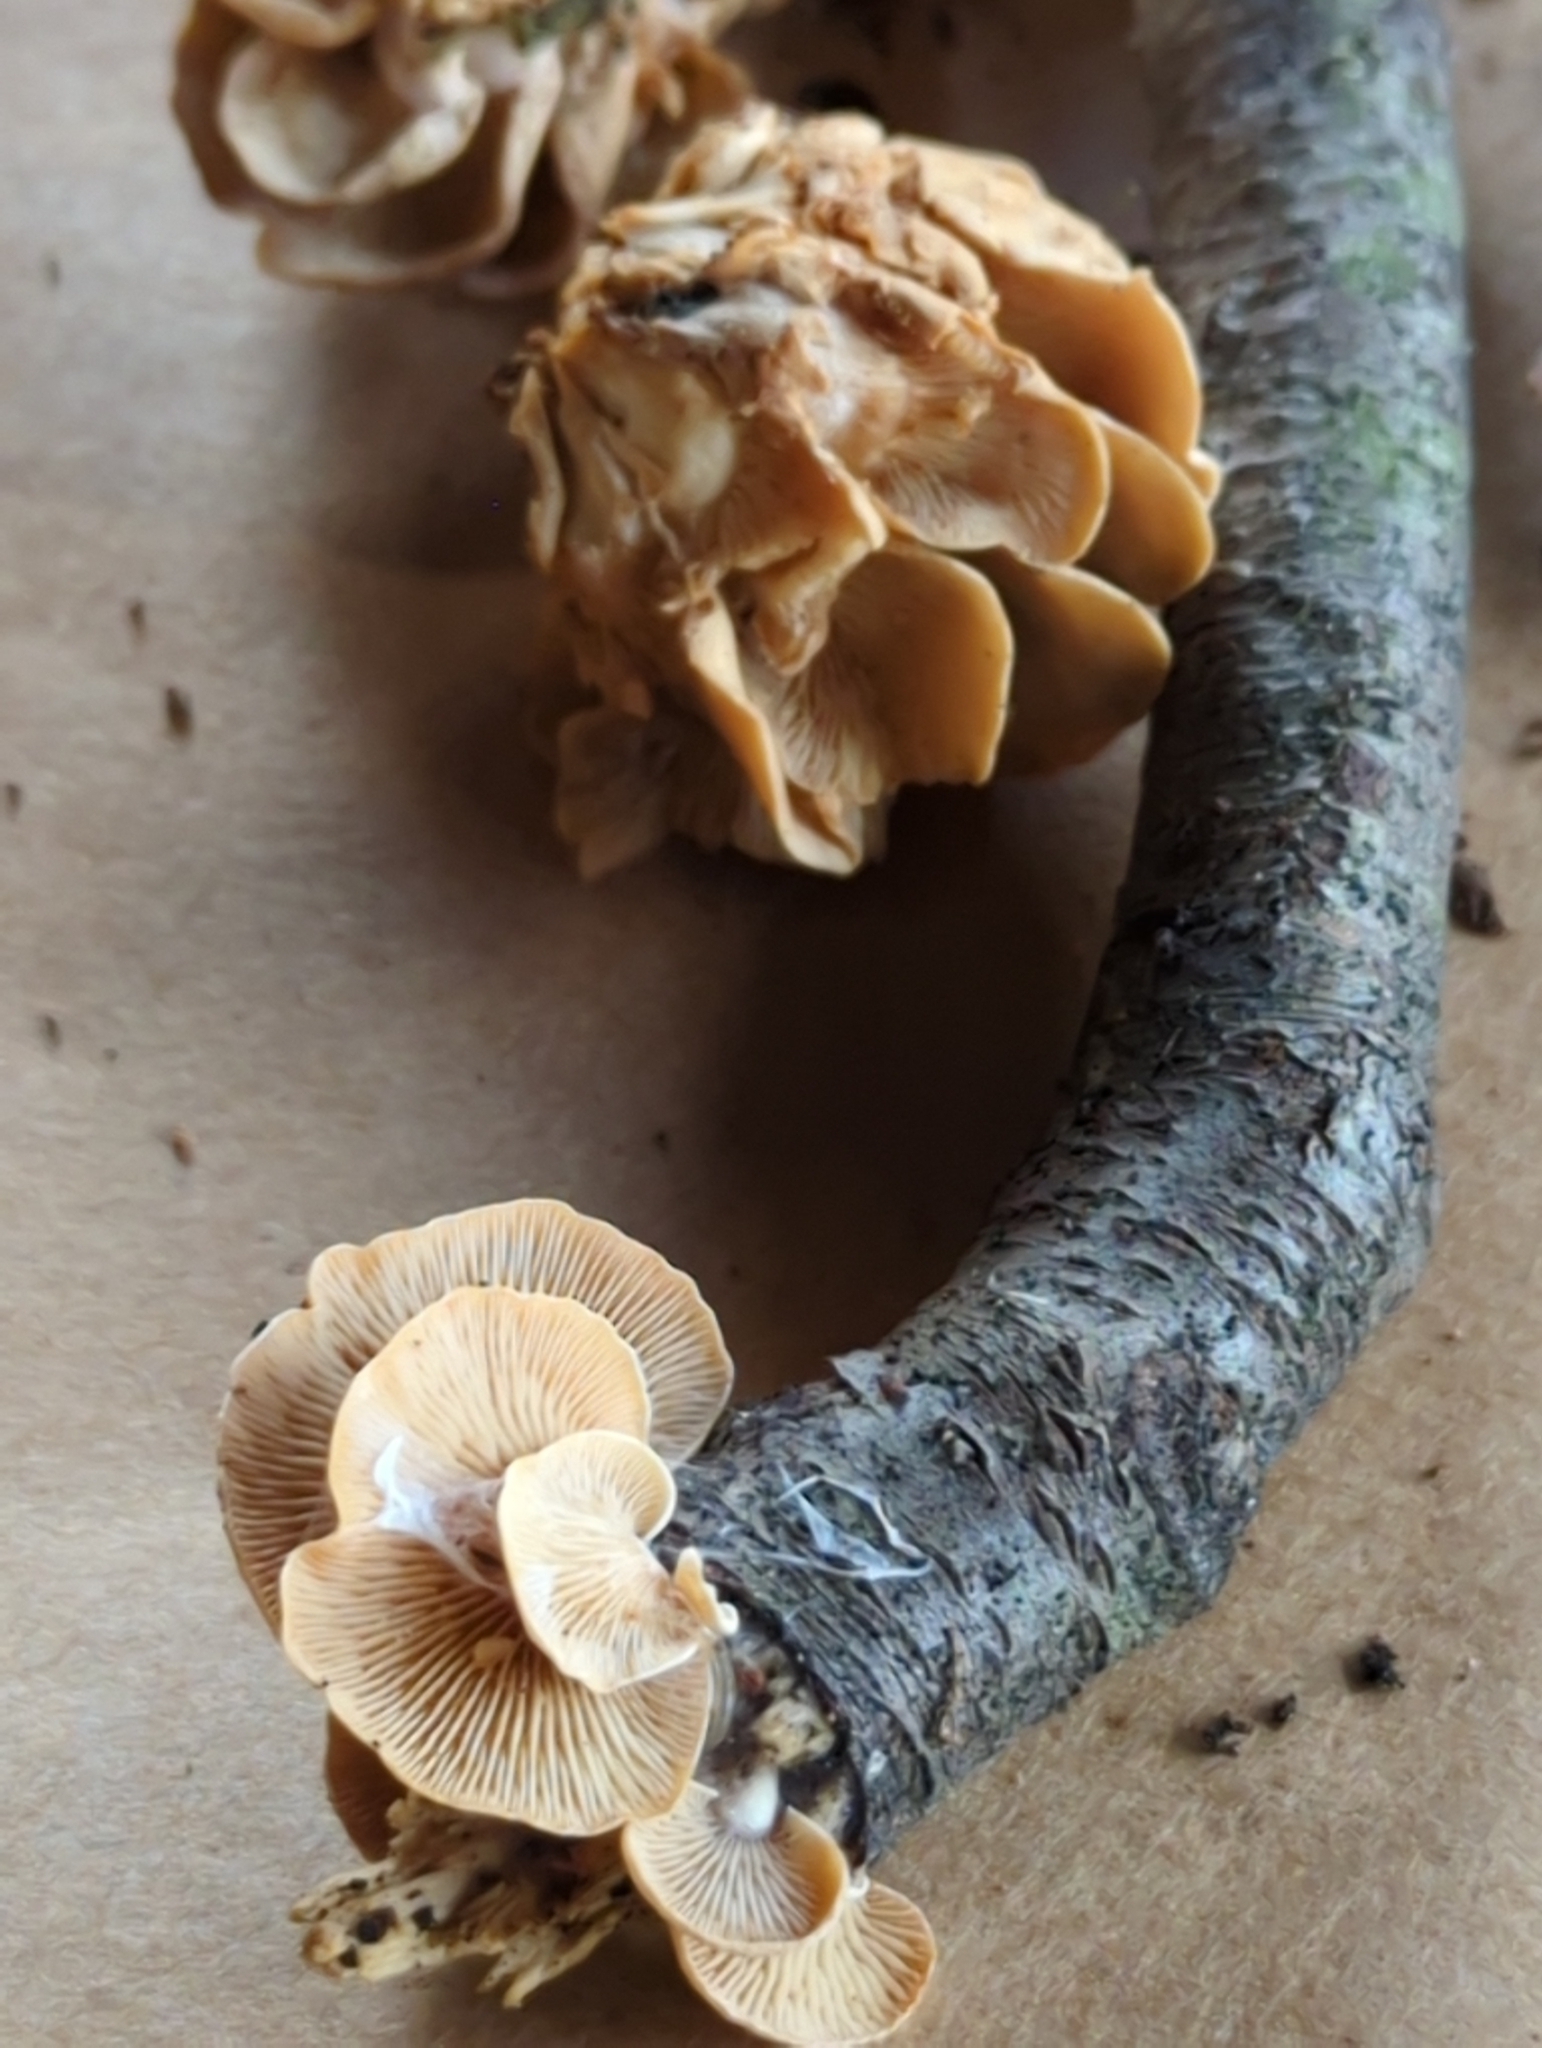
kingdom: Fungi
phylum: Basidiomycota
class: Agaricomycetes
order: Agaricales
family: Mycenaceae
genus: Panellus
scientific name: Panellus stipticus
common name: Bitter oysterling
